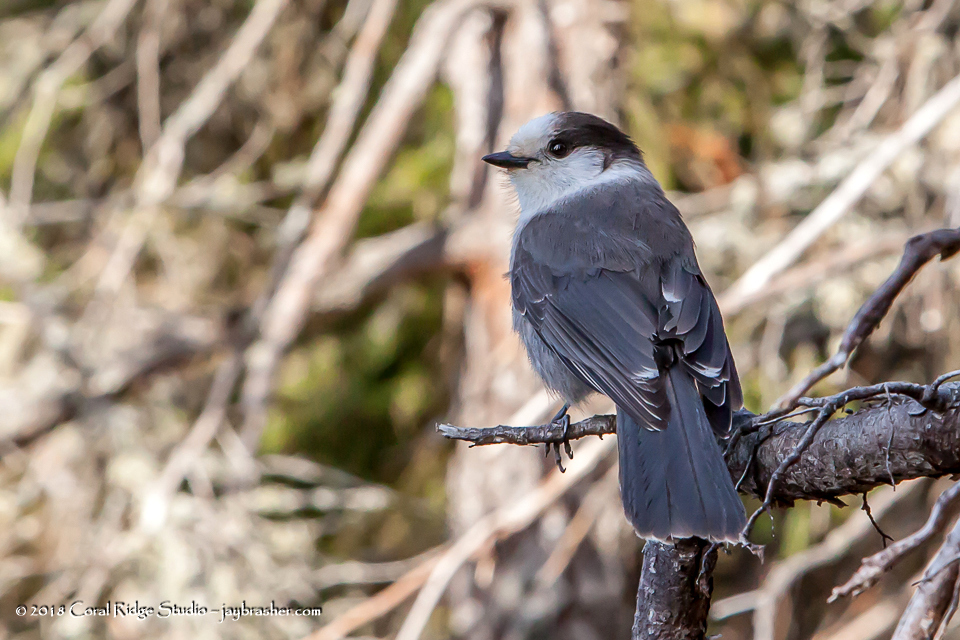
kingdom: Animalia
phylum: Chordata
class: Aves
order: Passeriformes
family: Corvidae
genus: Perisoreus
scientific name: Perisoreus canadensis
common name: Gray jay
